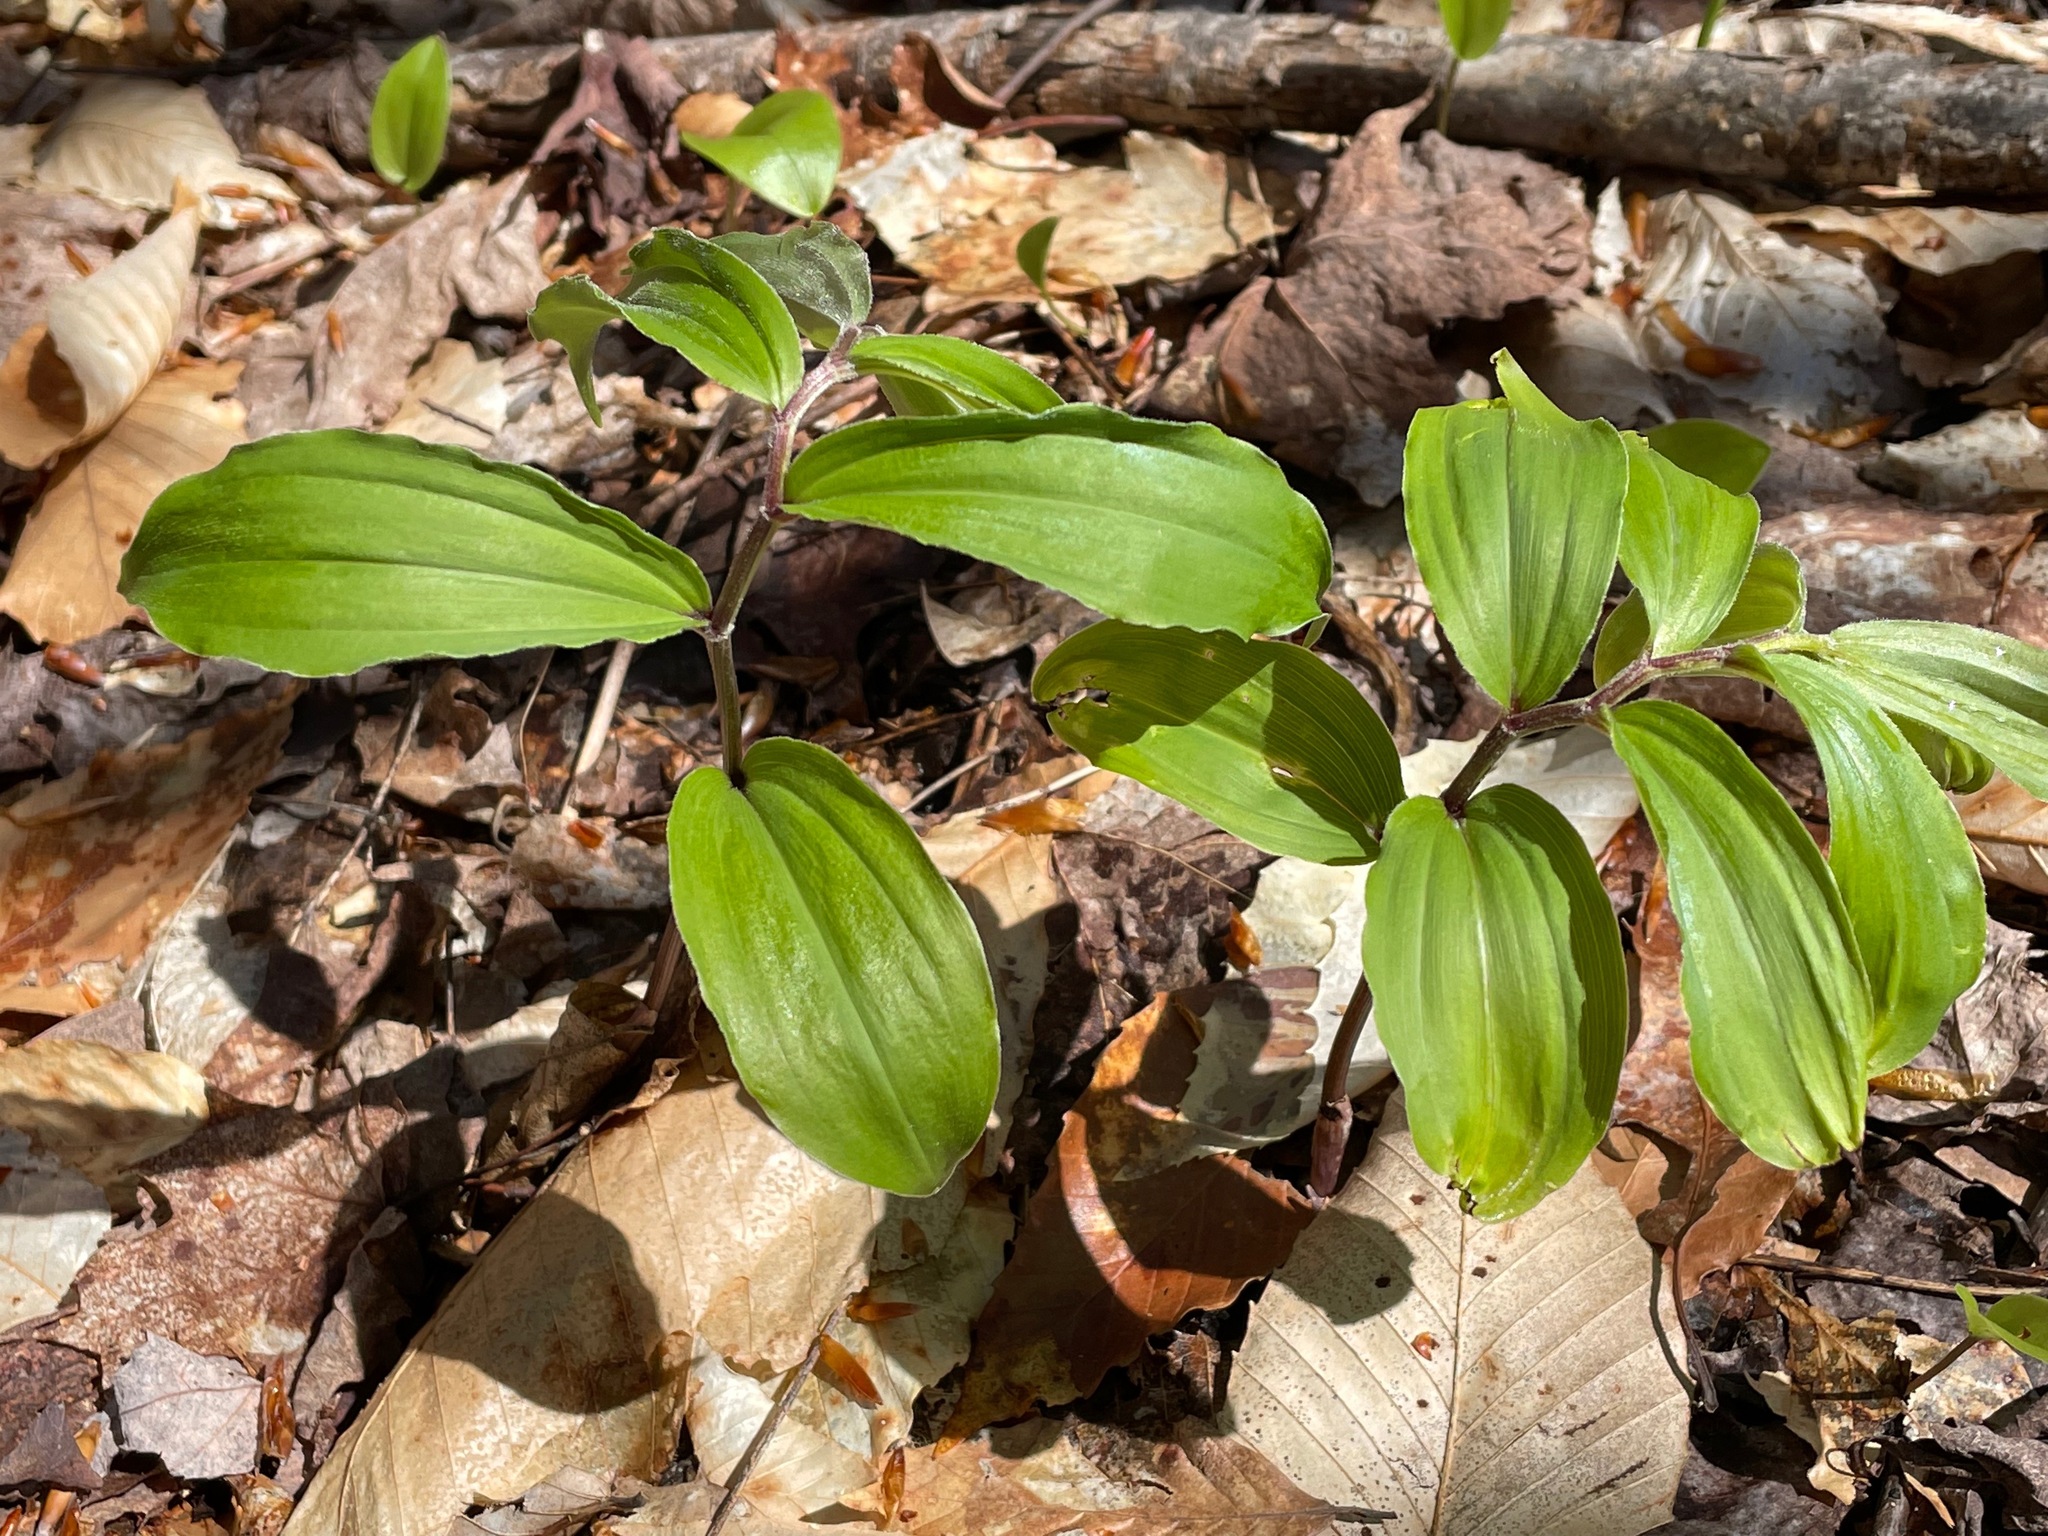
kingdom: Plantae
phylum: Tracheophyta
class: Liliopsida
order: Asparagales
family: Asparagaceae
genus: Maianthemum
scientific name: Maianthemum racemosum
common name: False spikenard
